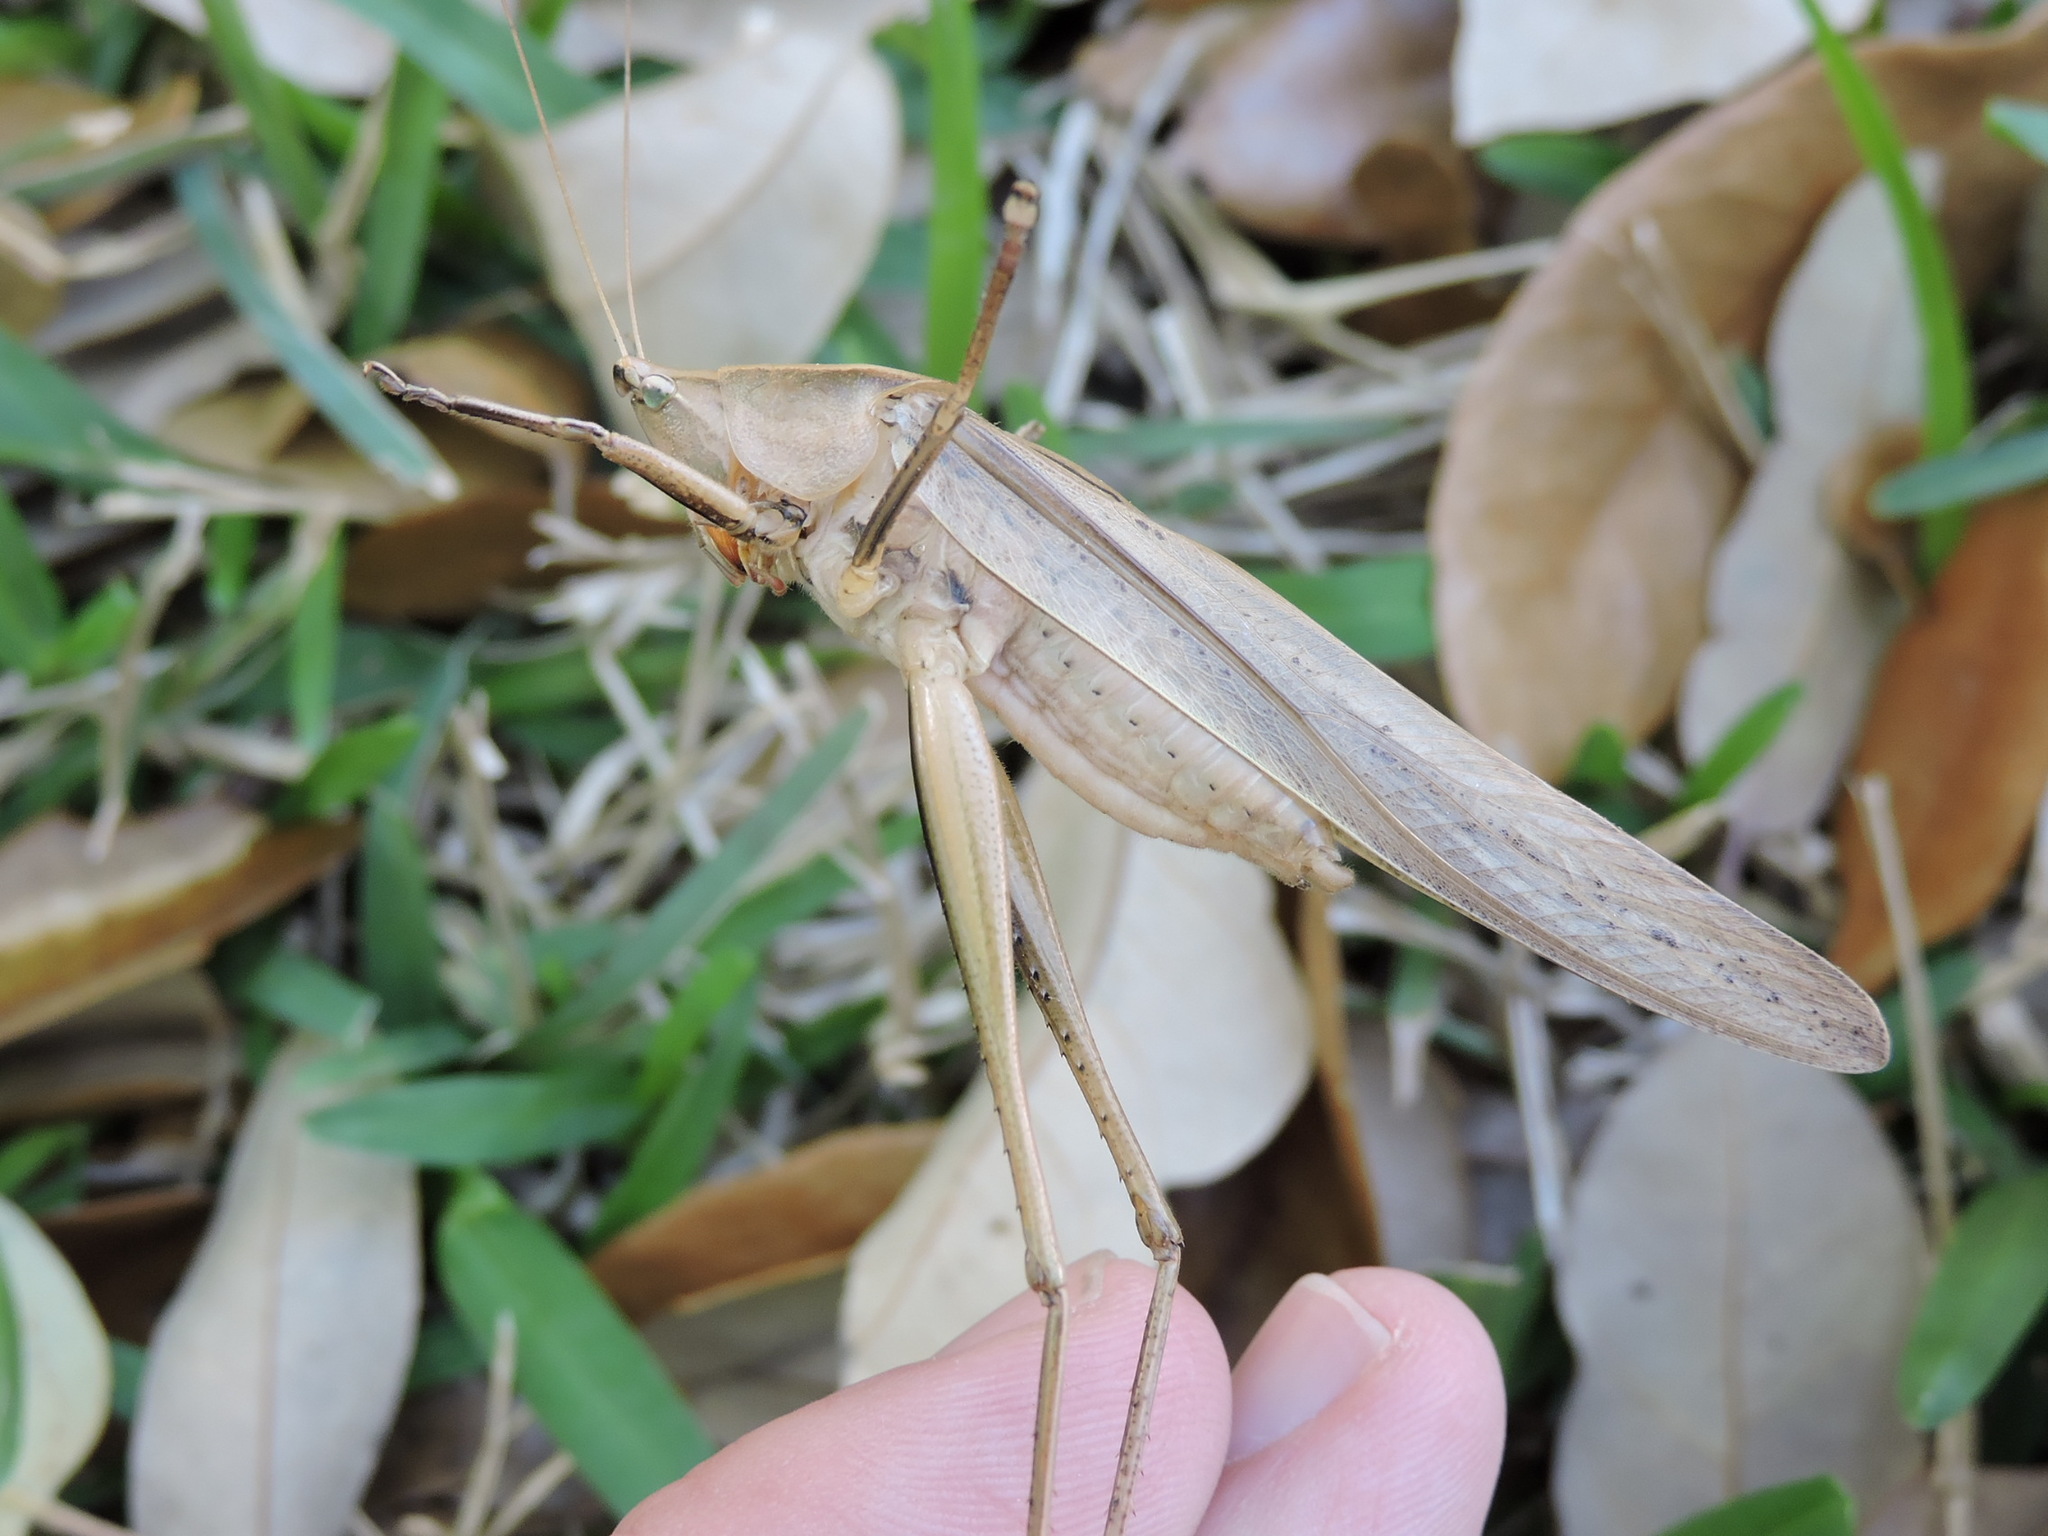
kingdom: Animalia
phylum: Arthropoda
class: Insecta
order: Orthoptera
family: Tettigoniidae
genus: Neoconocephalus
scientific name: Neoconocephalus triops
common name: Broad-tipped conehead
